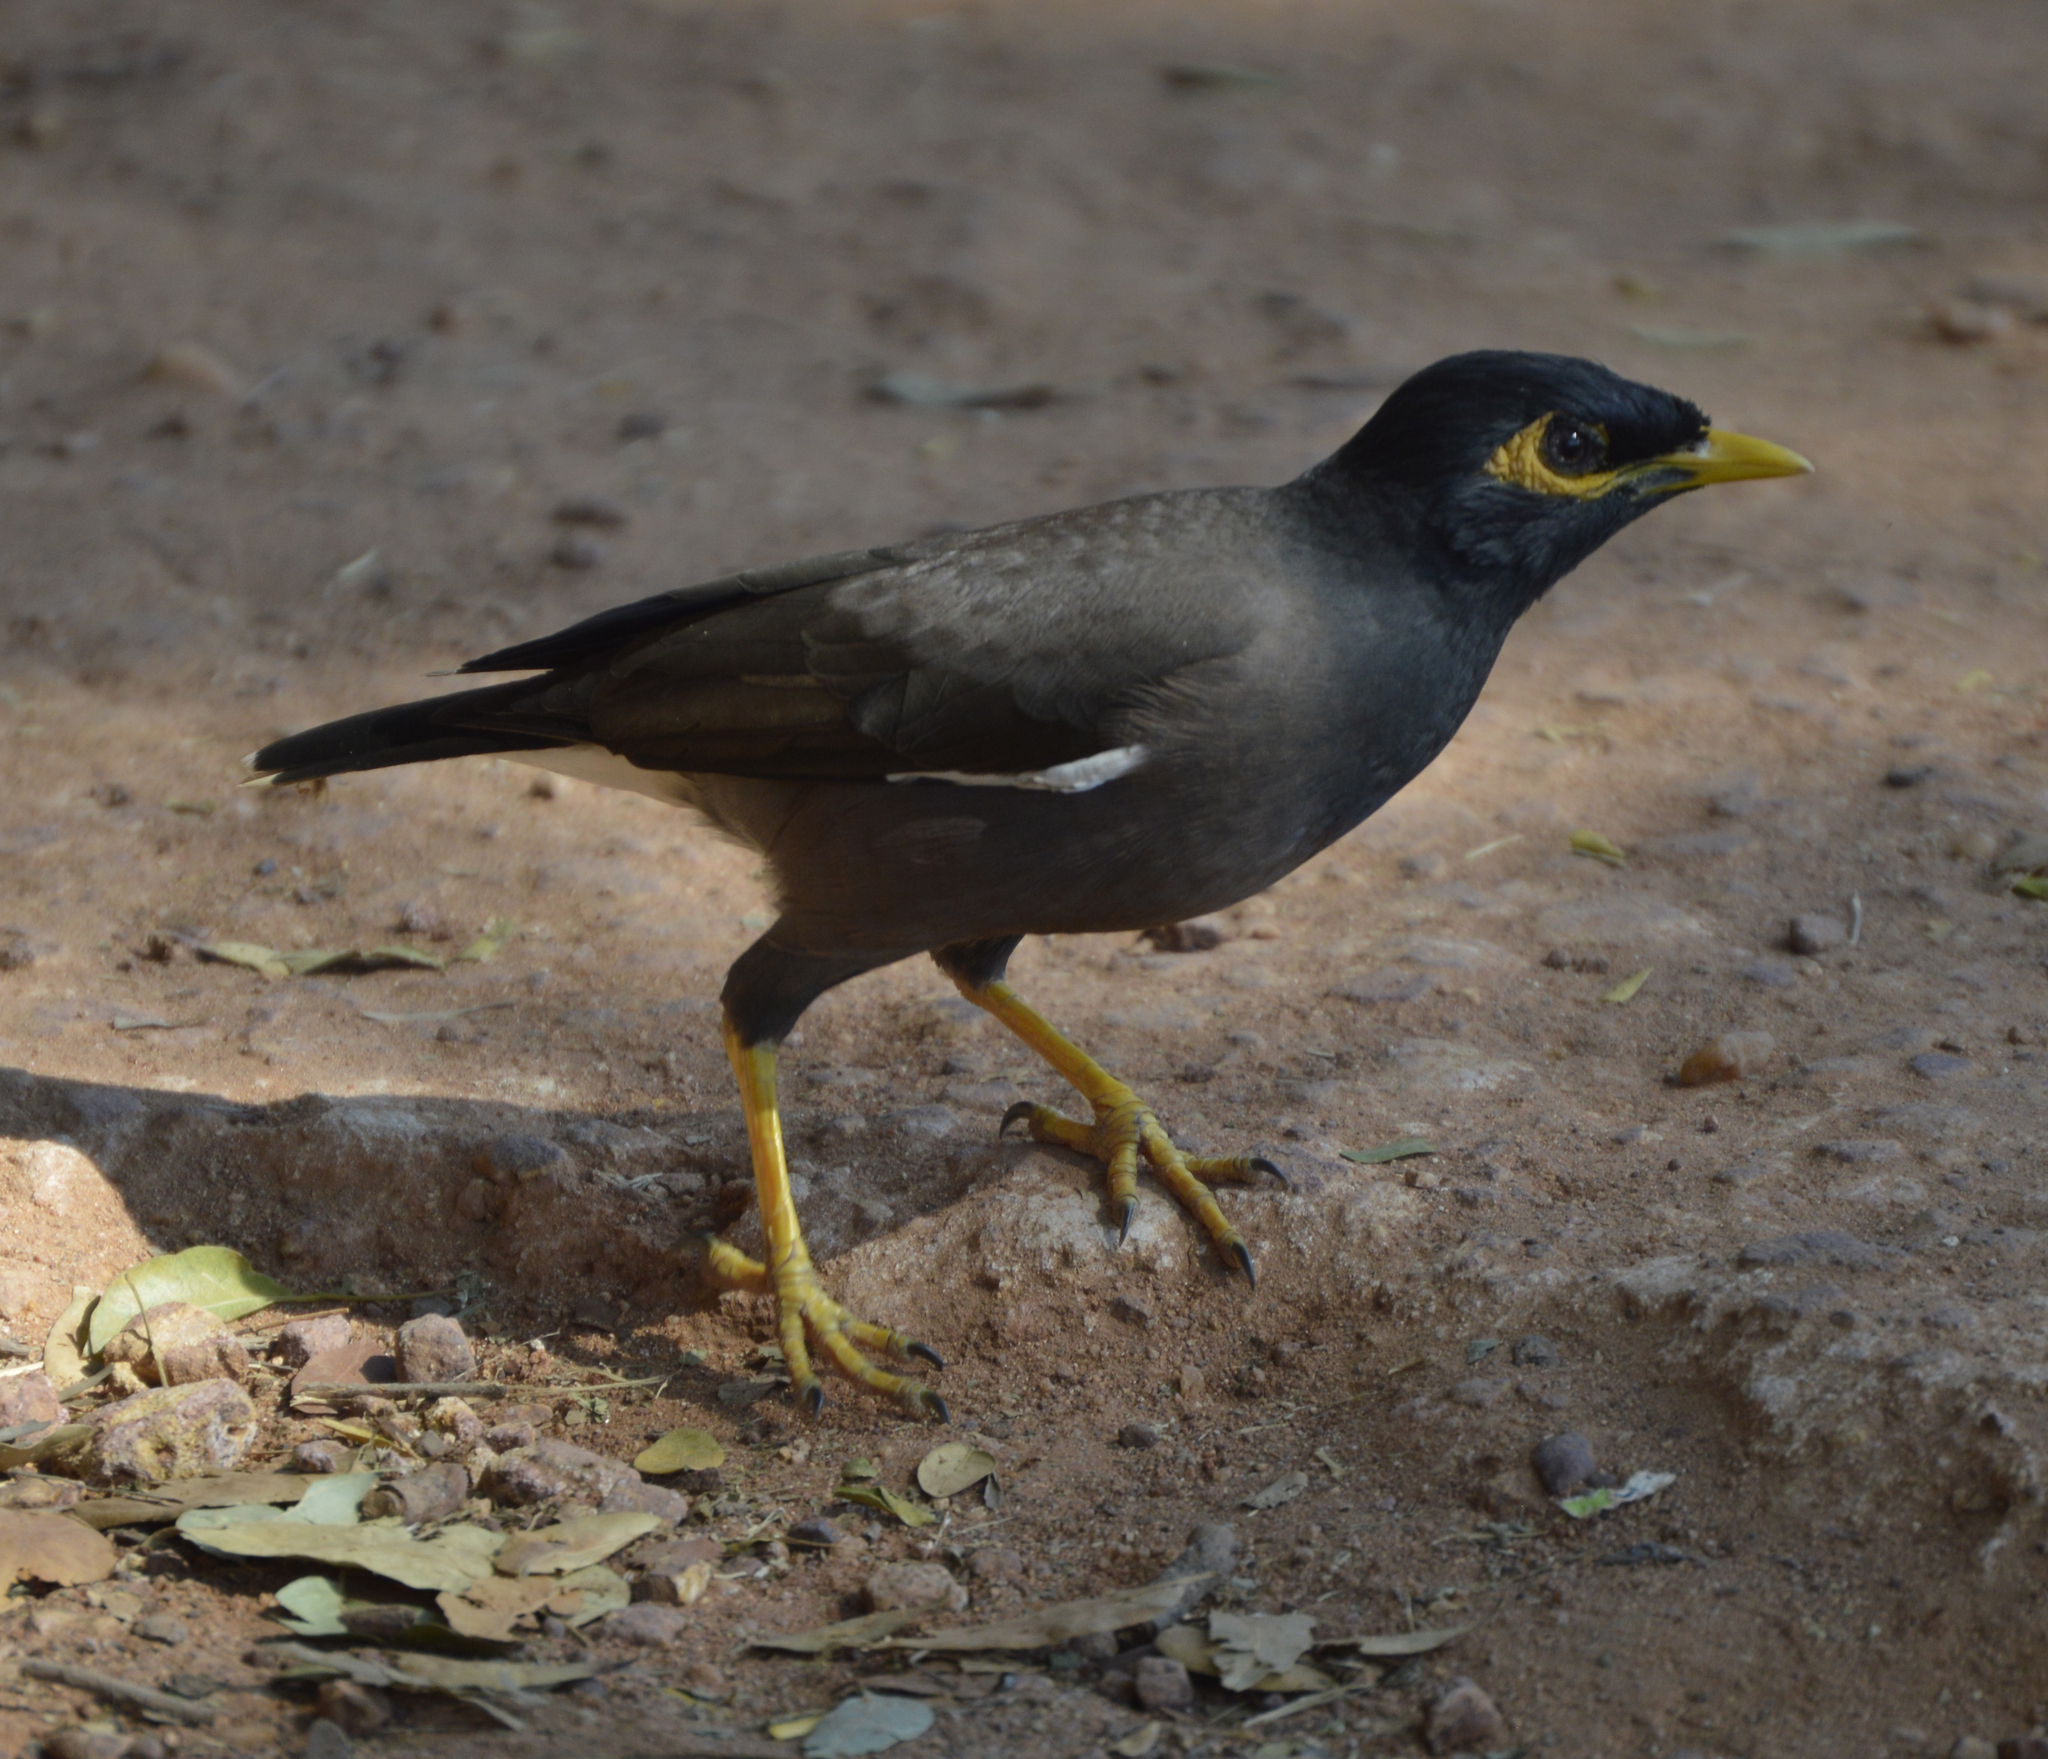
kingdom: Animalia
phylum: Chordata
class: Aves
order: Passeriformes
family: Sturnidae
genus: Acridotheres
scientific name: Acridotheres tristis
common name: Common myna
